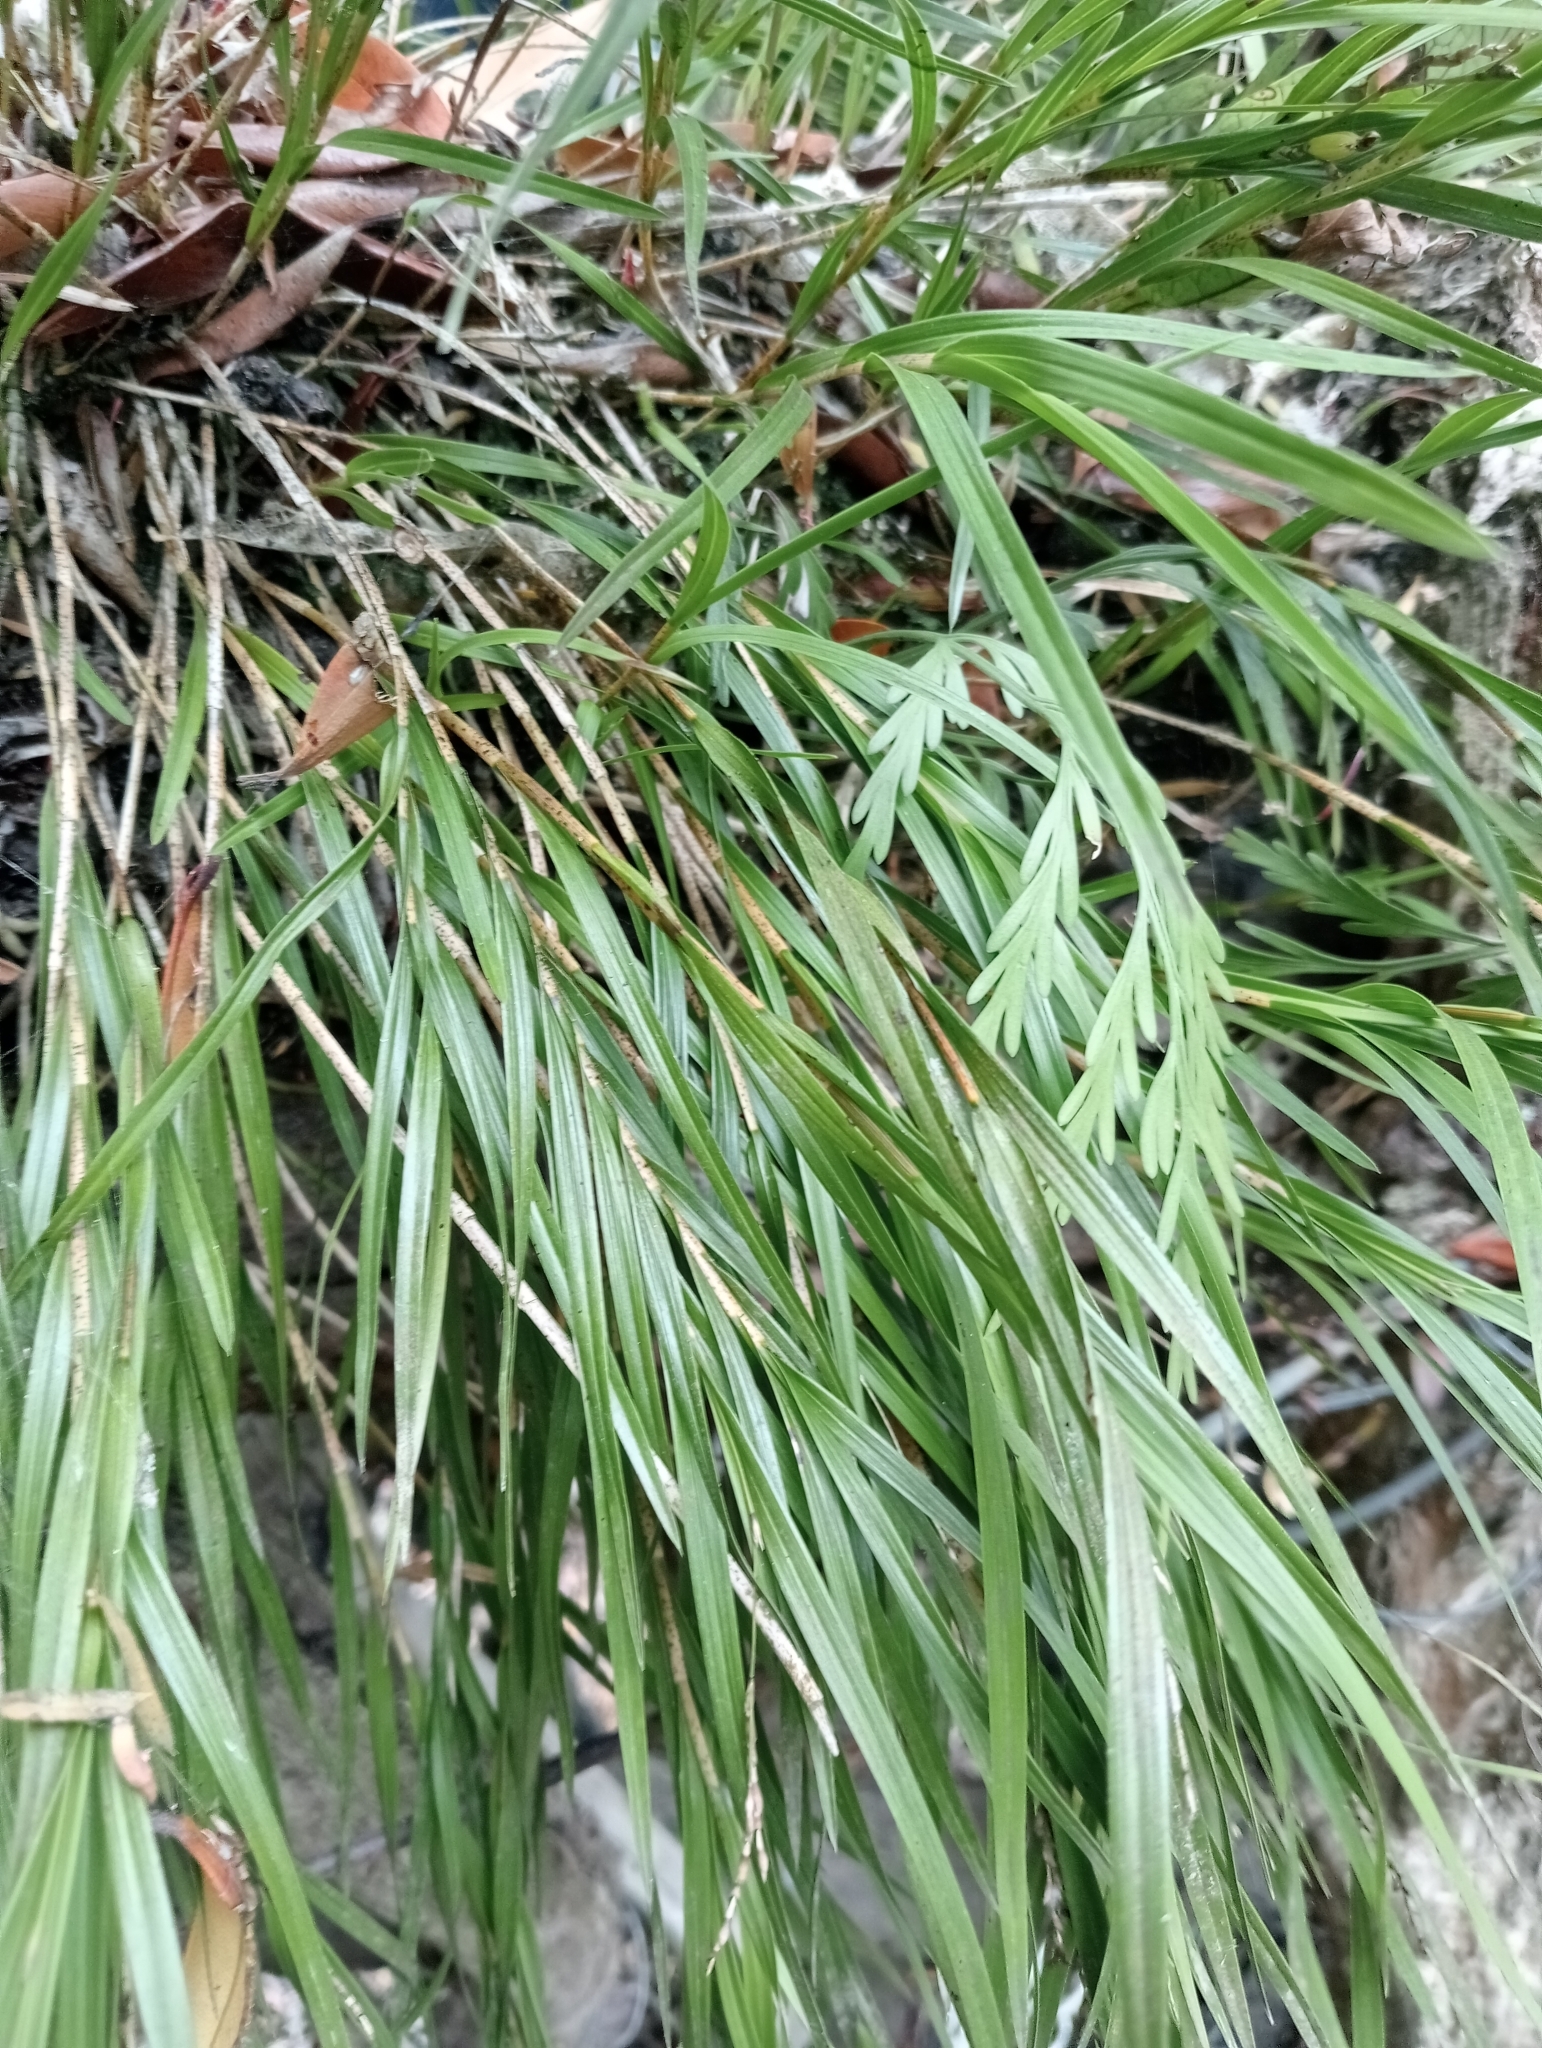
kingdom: Plantae
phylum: Tracheophyta
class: Liliopsida
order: Asparagales
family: Orchidaceae
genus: Earina
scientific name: Earina mucronata
